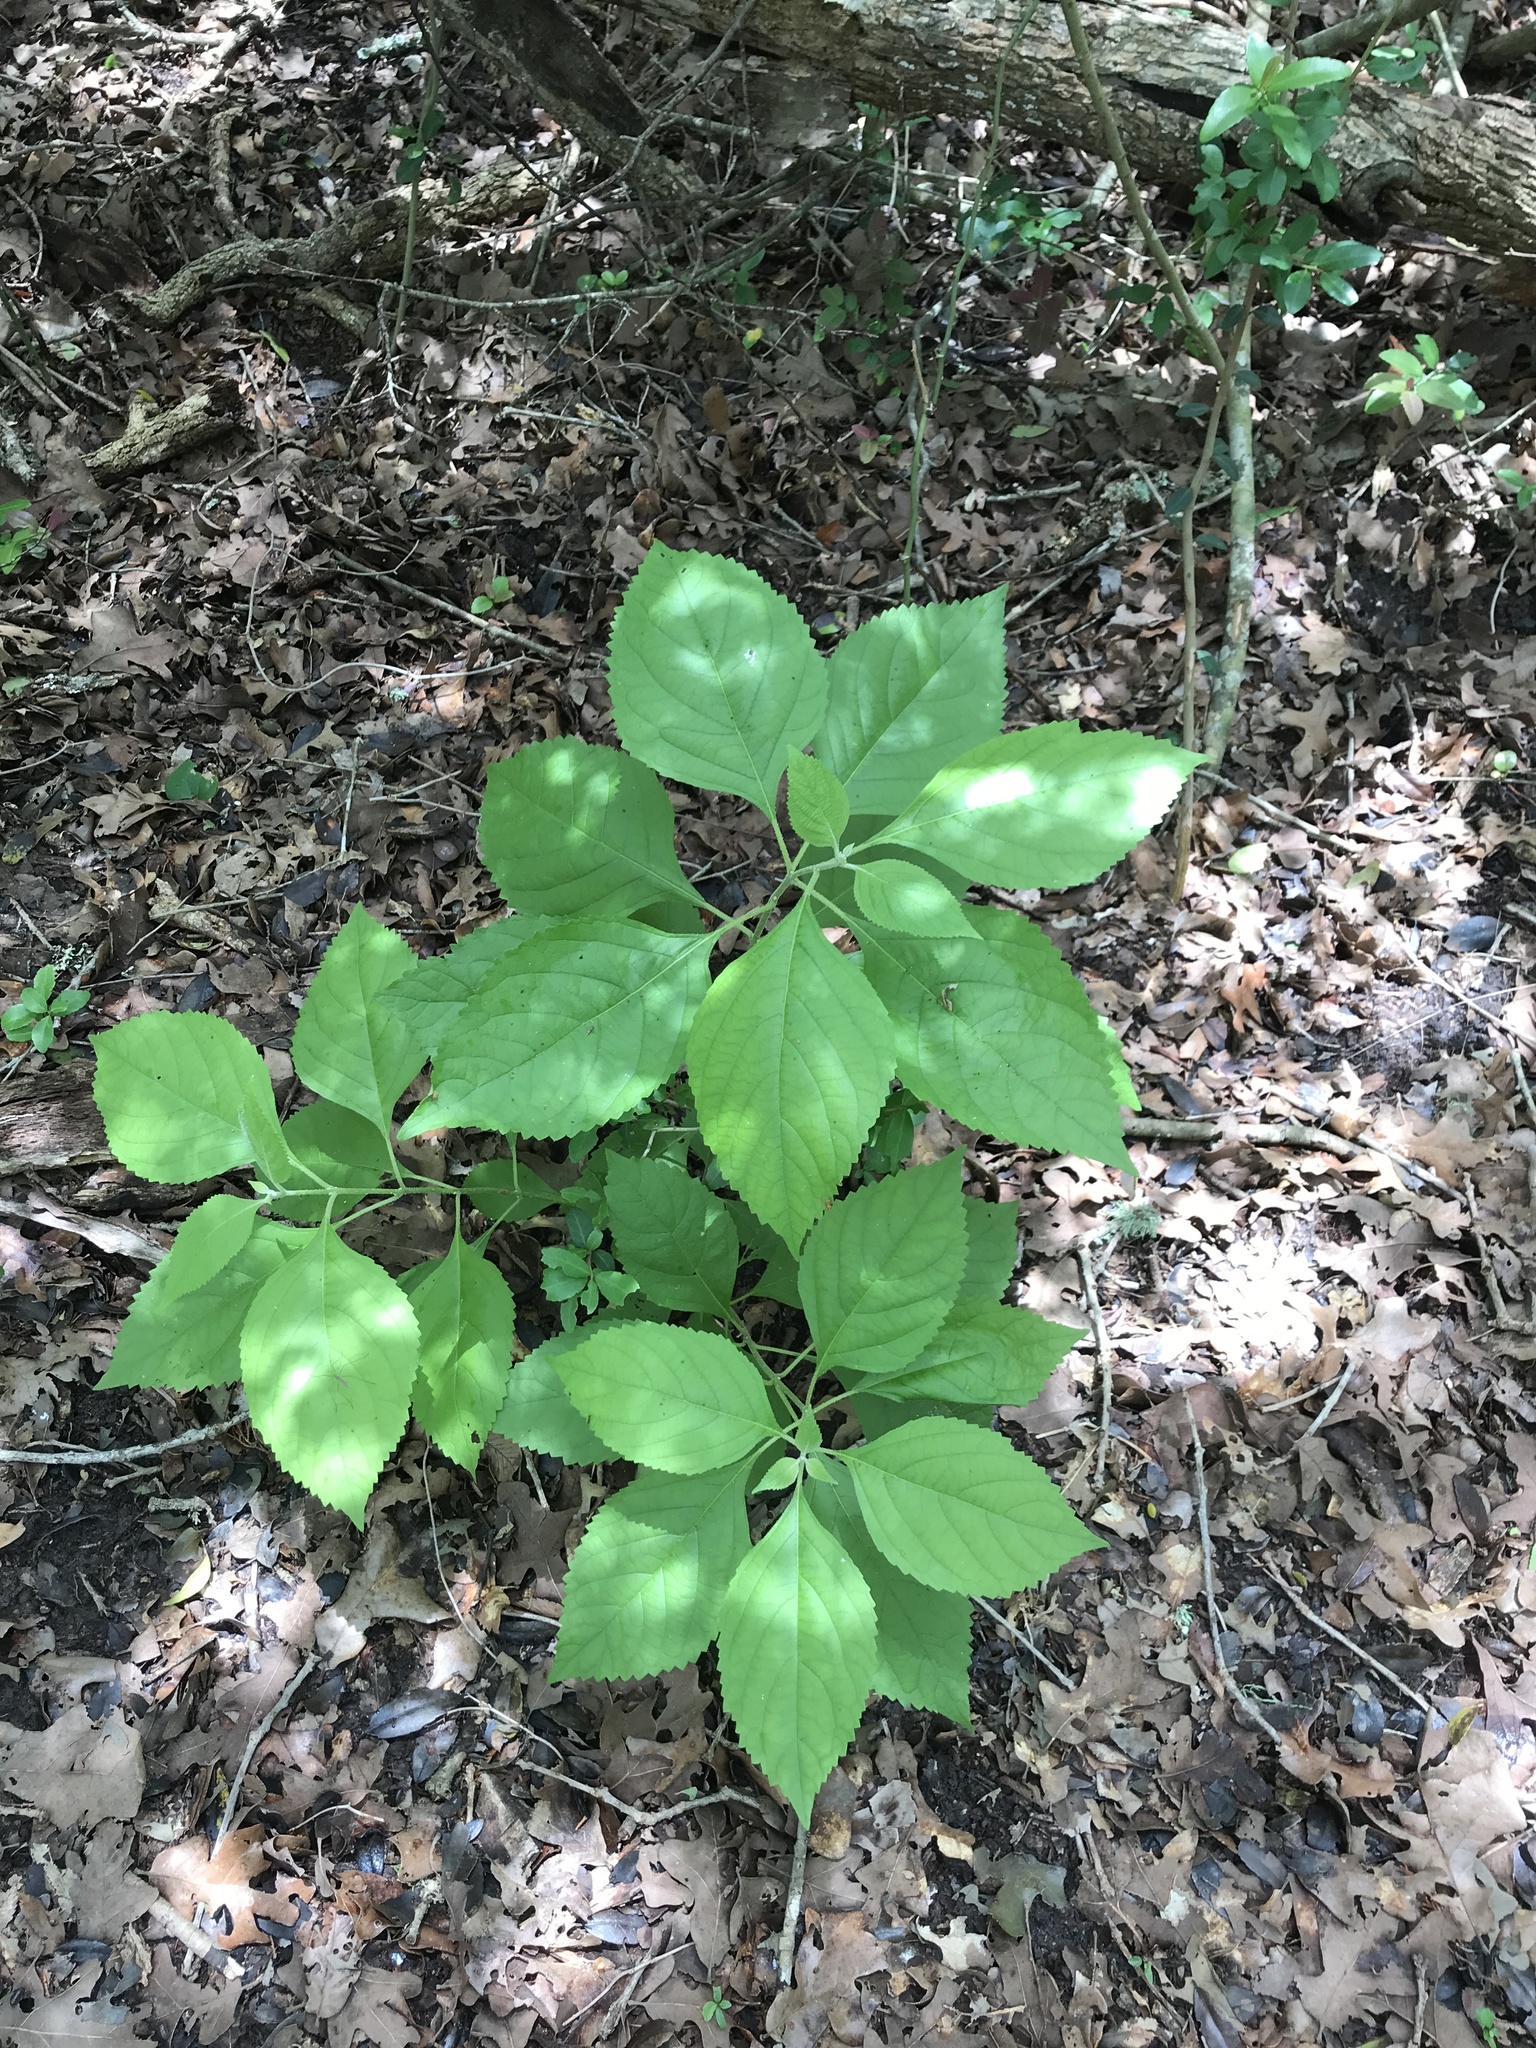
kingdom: Plantae
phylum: Tracheophyta
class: Magnoliopsida
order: Lamiales
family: Lamiaceae
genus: Callicarpa
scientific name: Callicarpa americana
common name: American beautyberry
